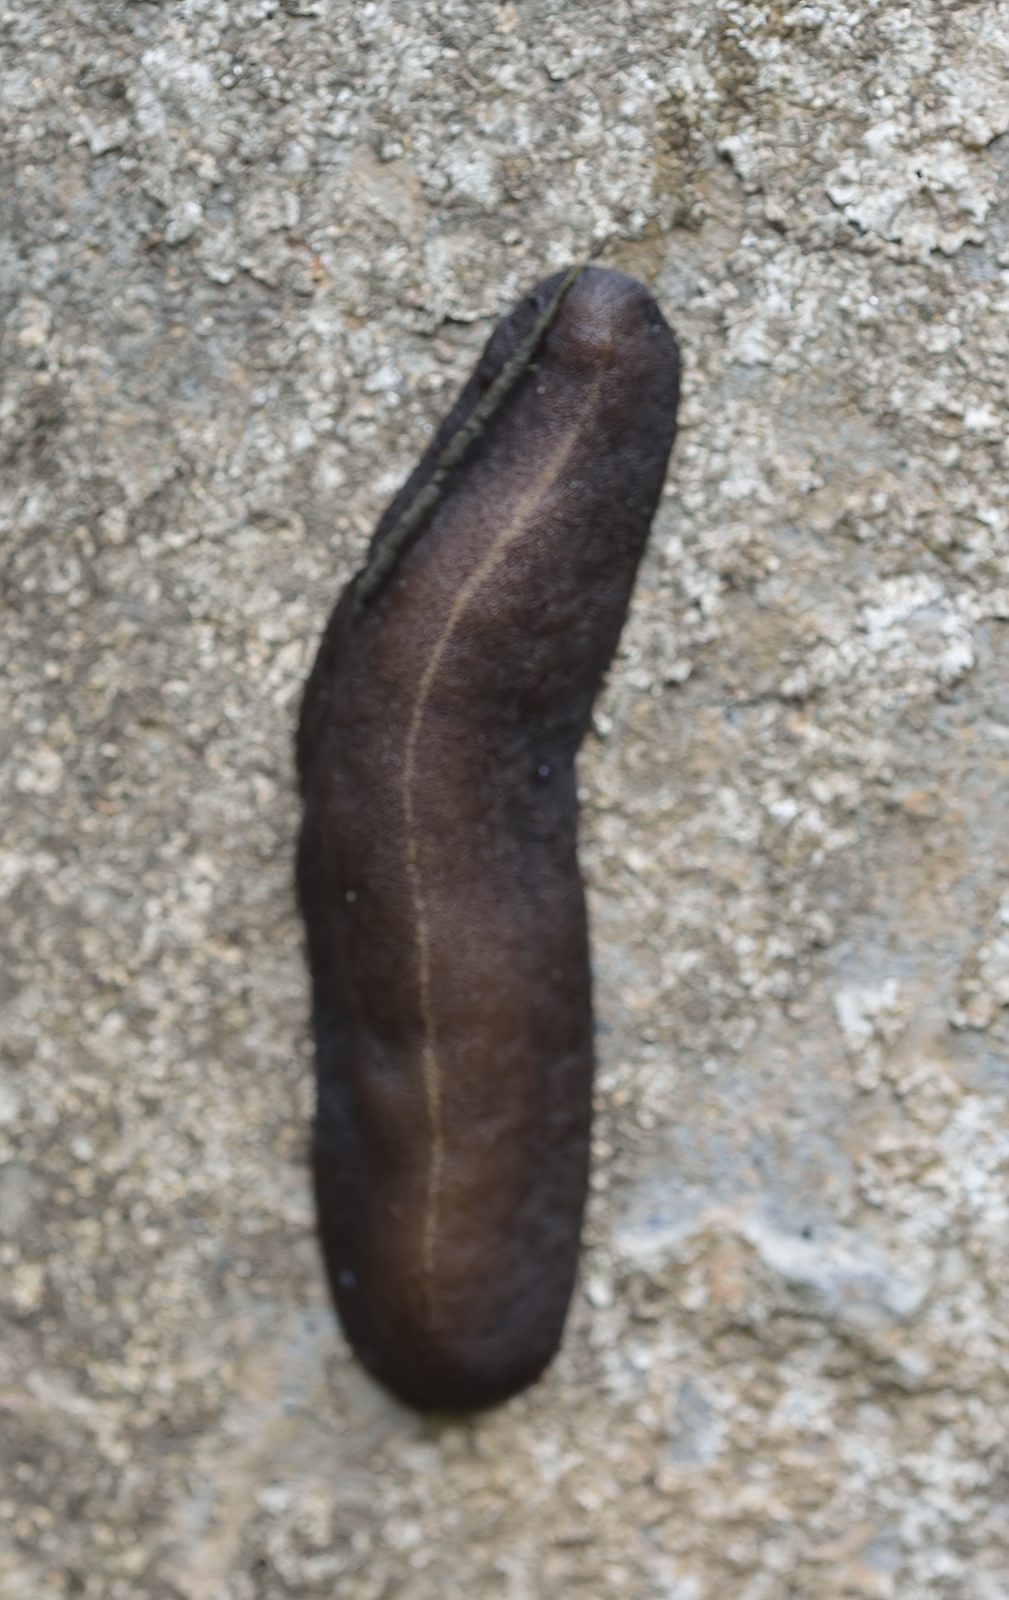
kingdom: Animalia
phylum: Mollusca
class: Gastropoda
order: Systellommatophora
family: Veronicellidae
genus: Laevicaulis
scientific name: Laevicaulis alte
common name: Tropical leatherleaf
